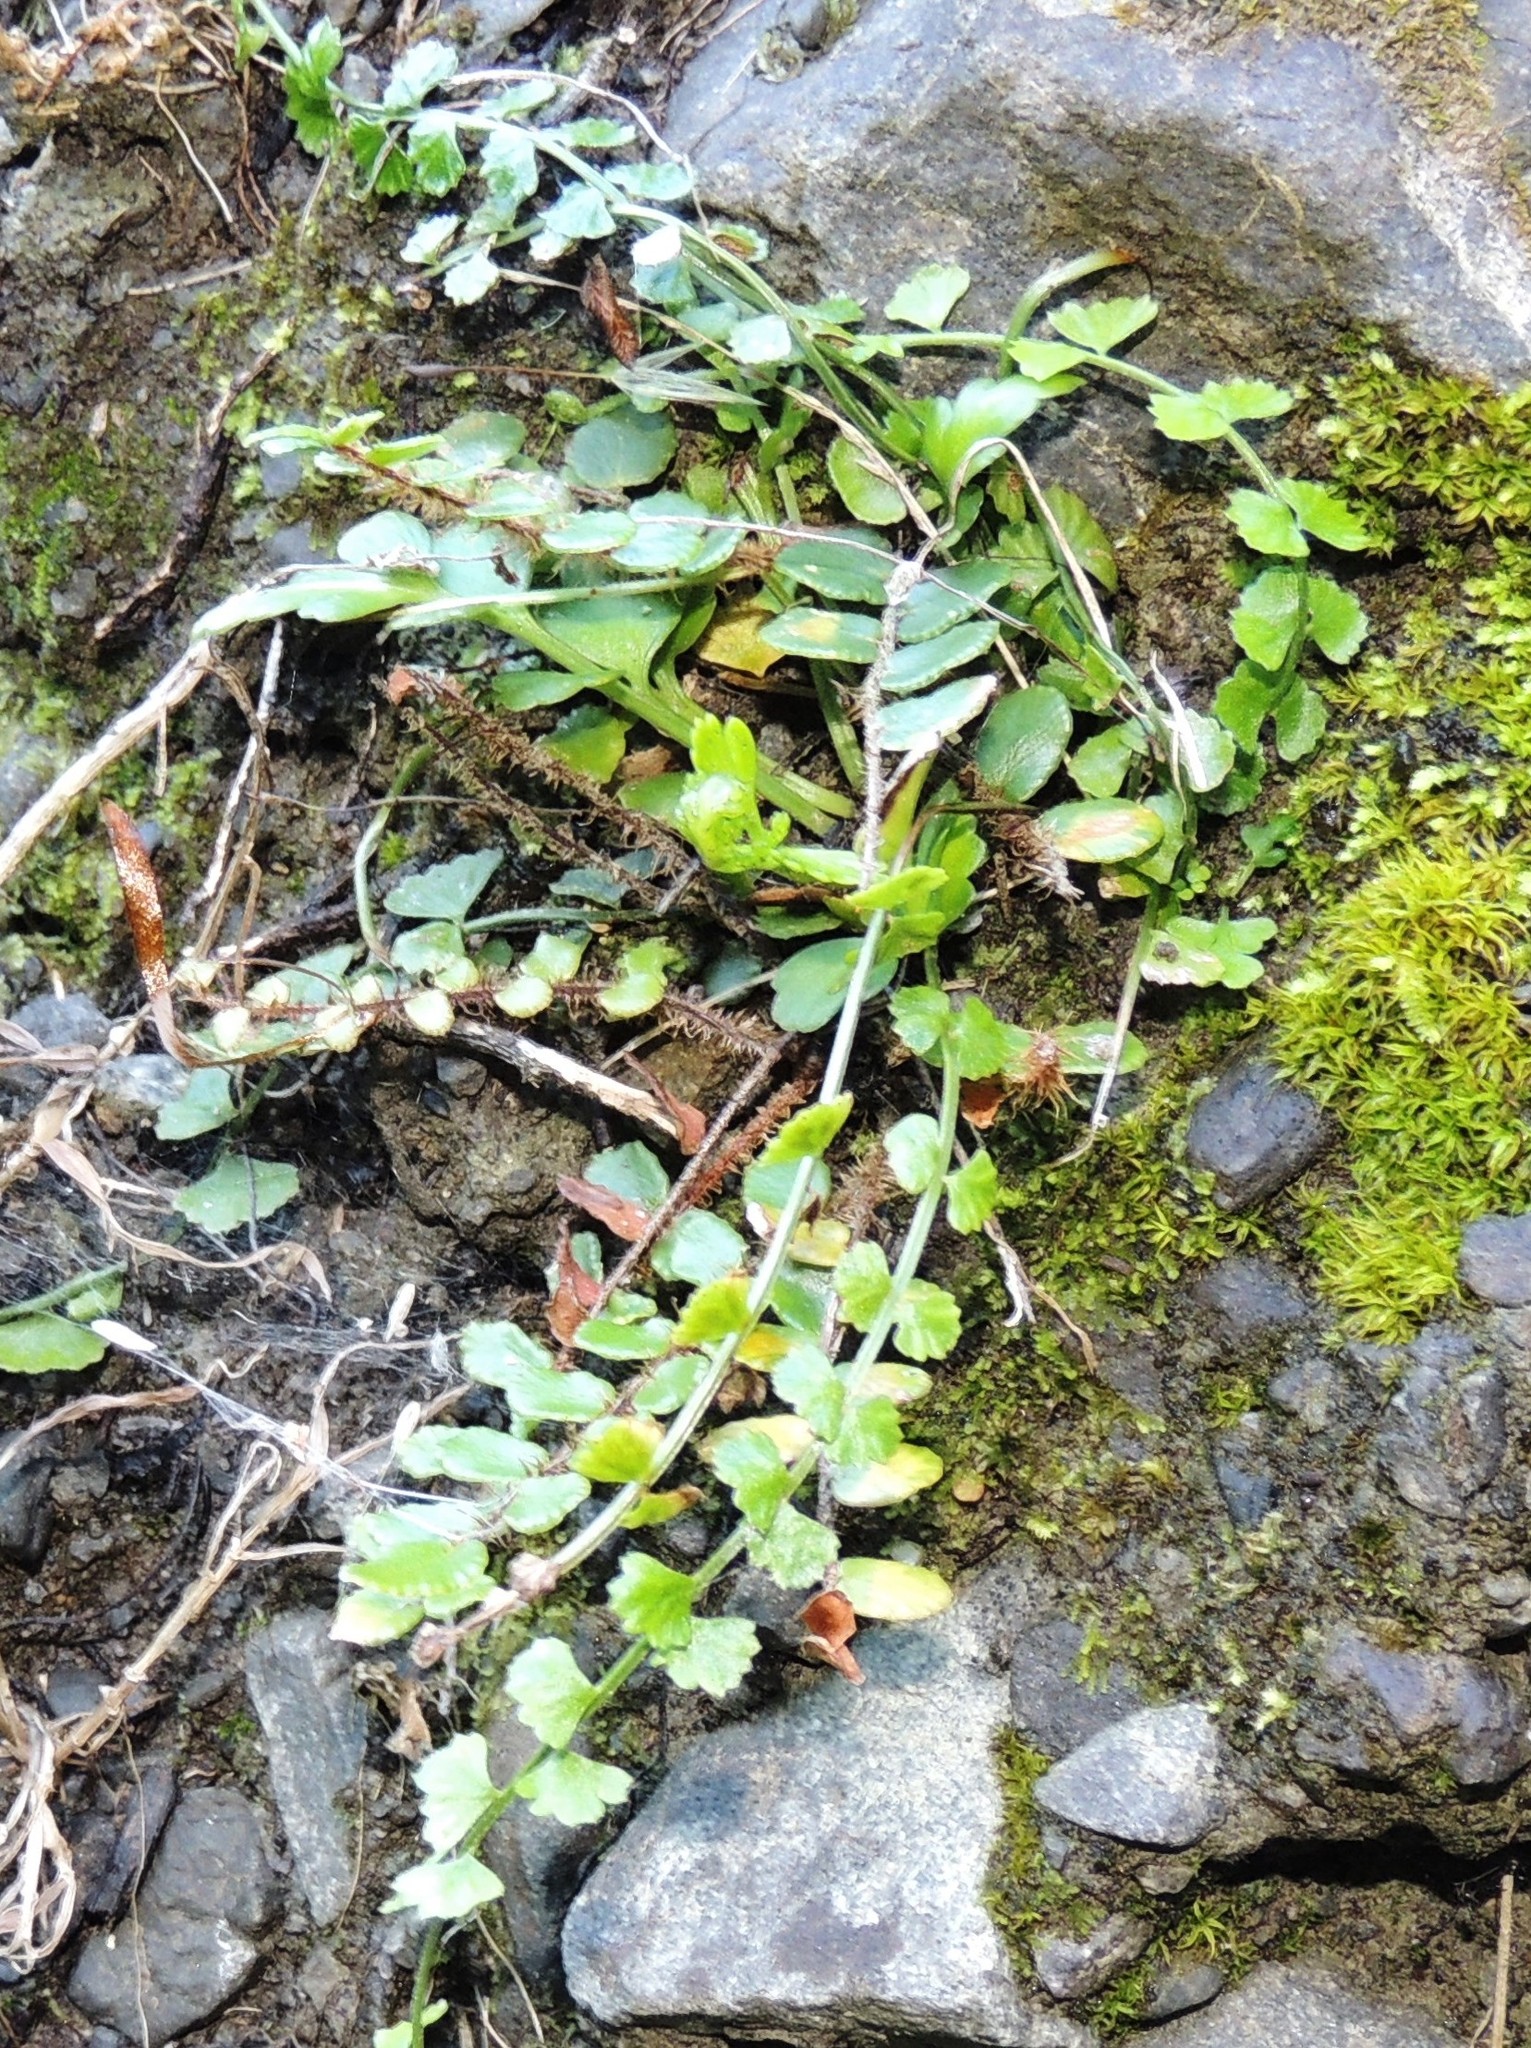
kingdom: Plantae
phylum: Tracheophyta
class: Polypodiopsida
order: Polypodiales
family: Aspleniaceae
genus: Asplenium
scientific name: Asplenium flabellifolium
